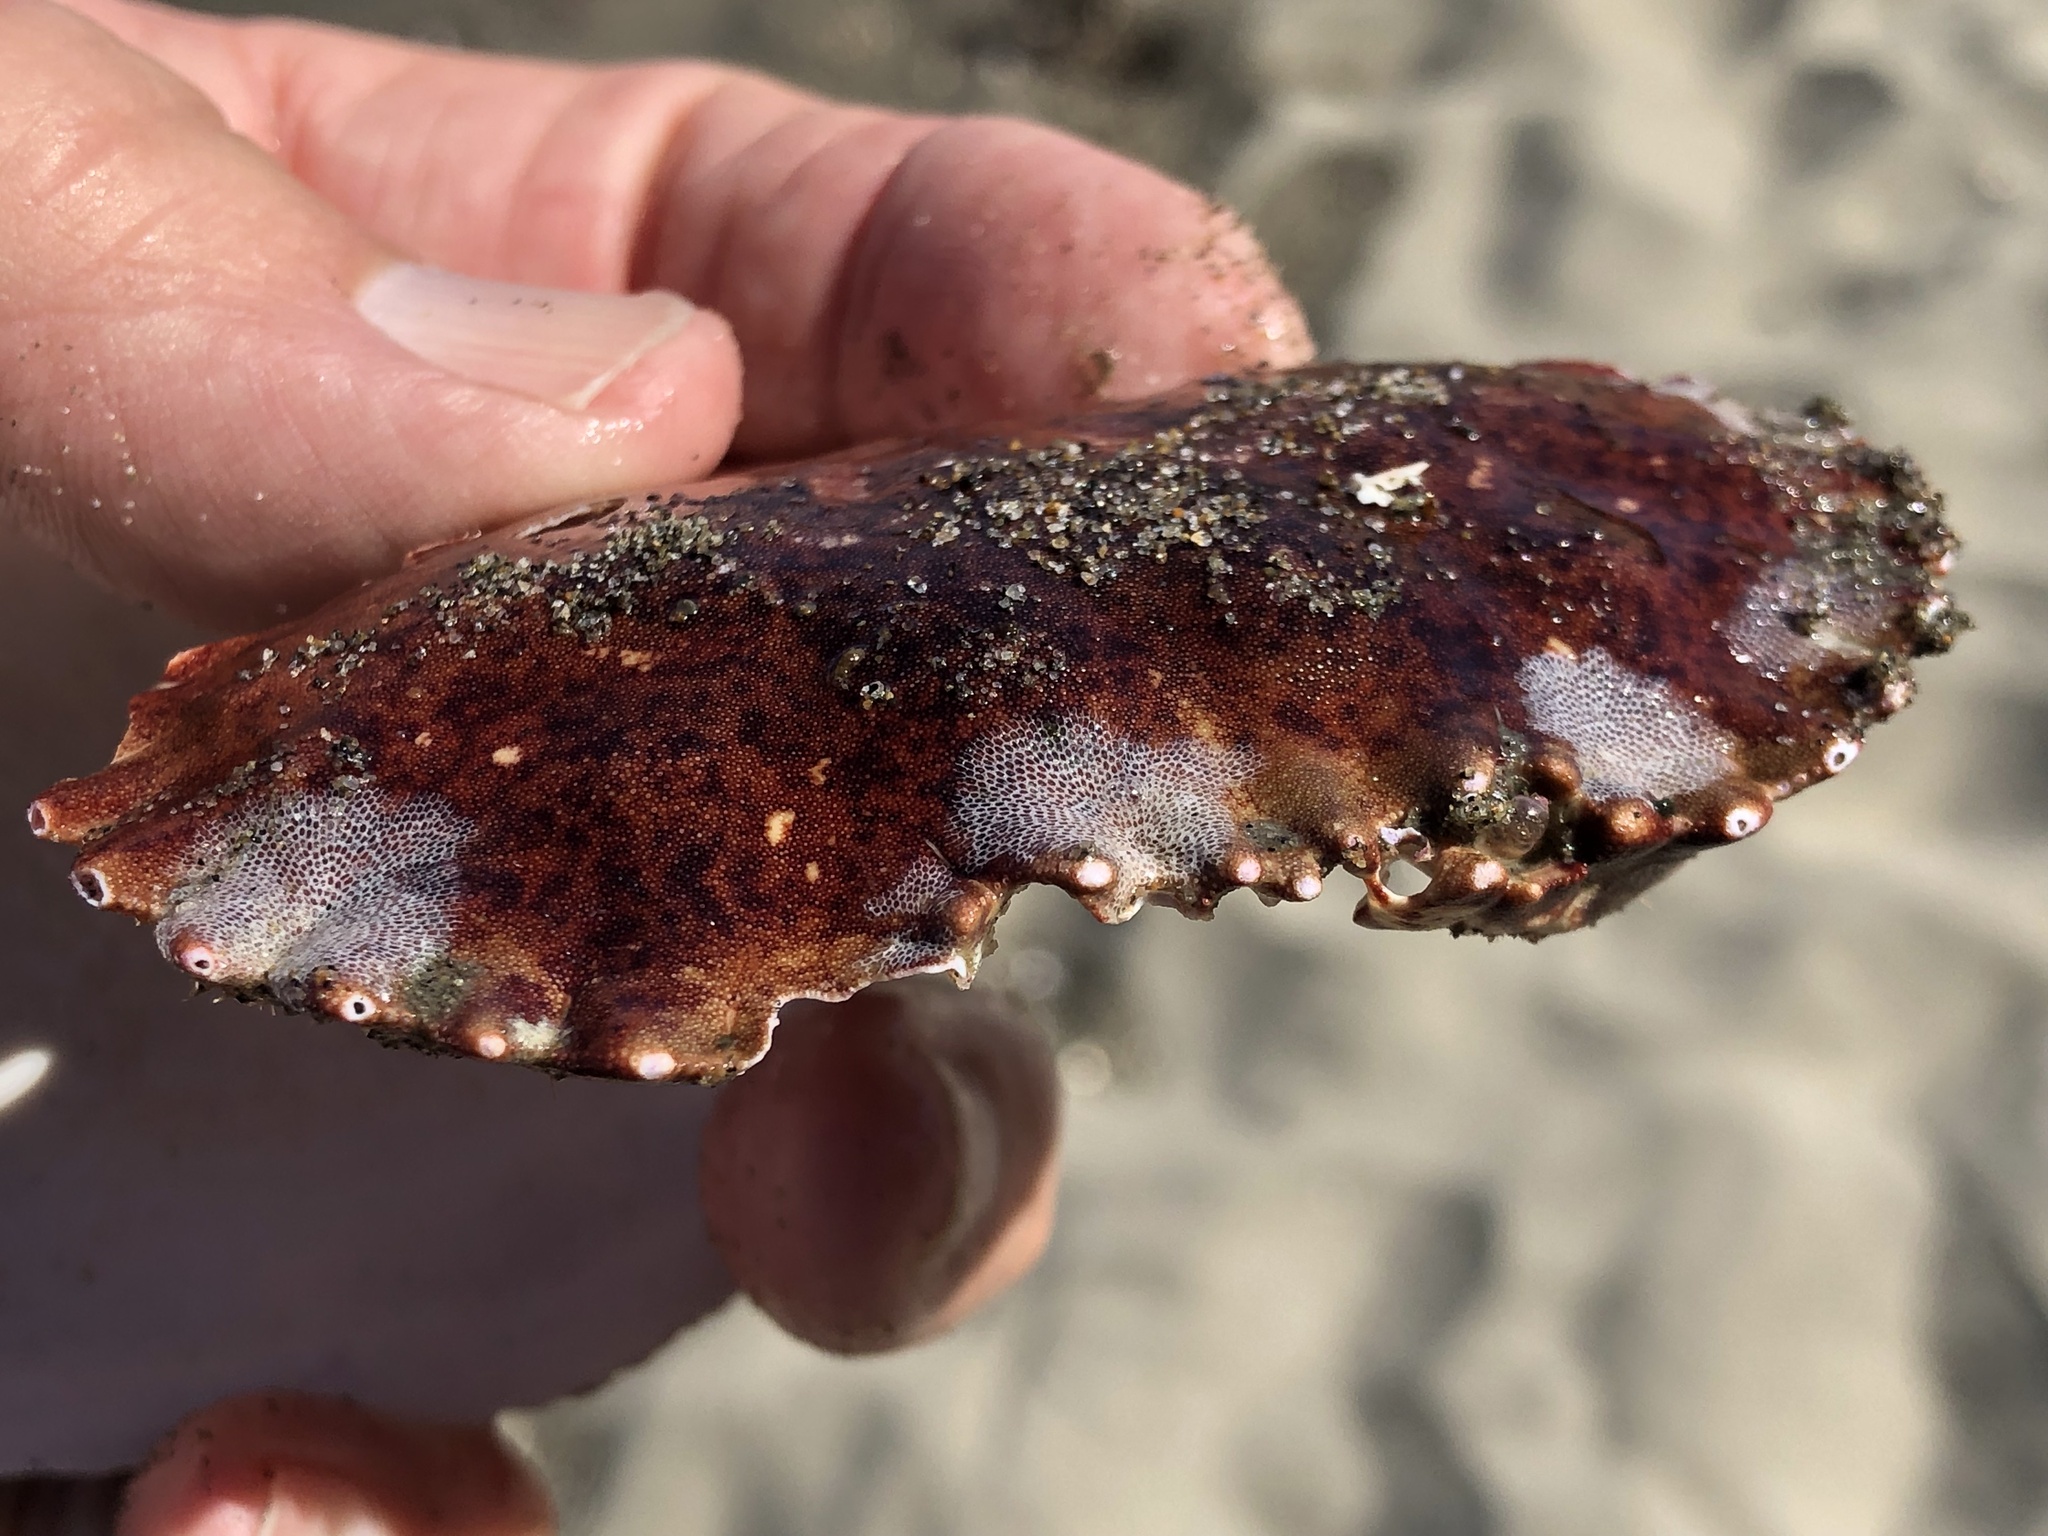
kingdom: Animalia
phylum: Arthropoda
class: Malacostraca
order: Decapoda
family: Cancridae
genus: Romaleon
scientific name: Romaleon antennarium
